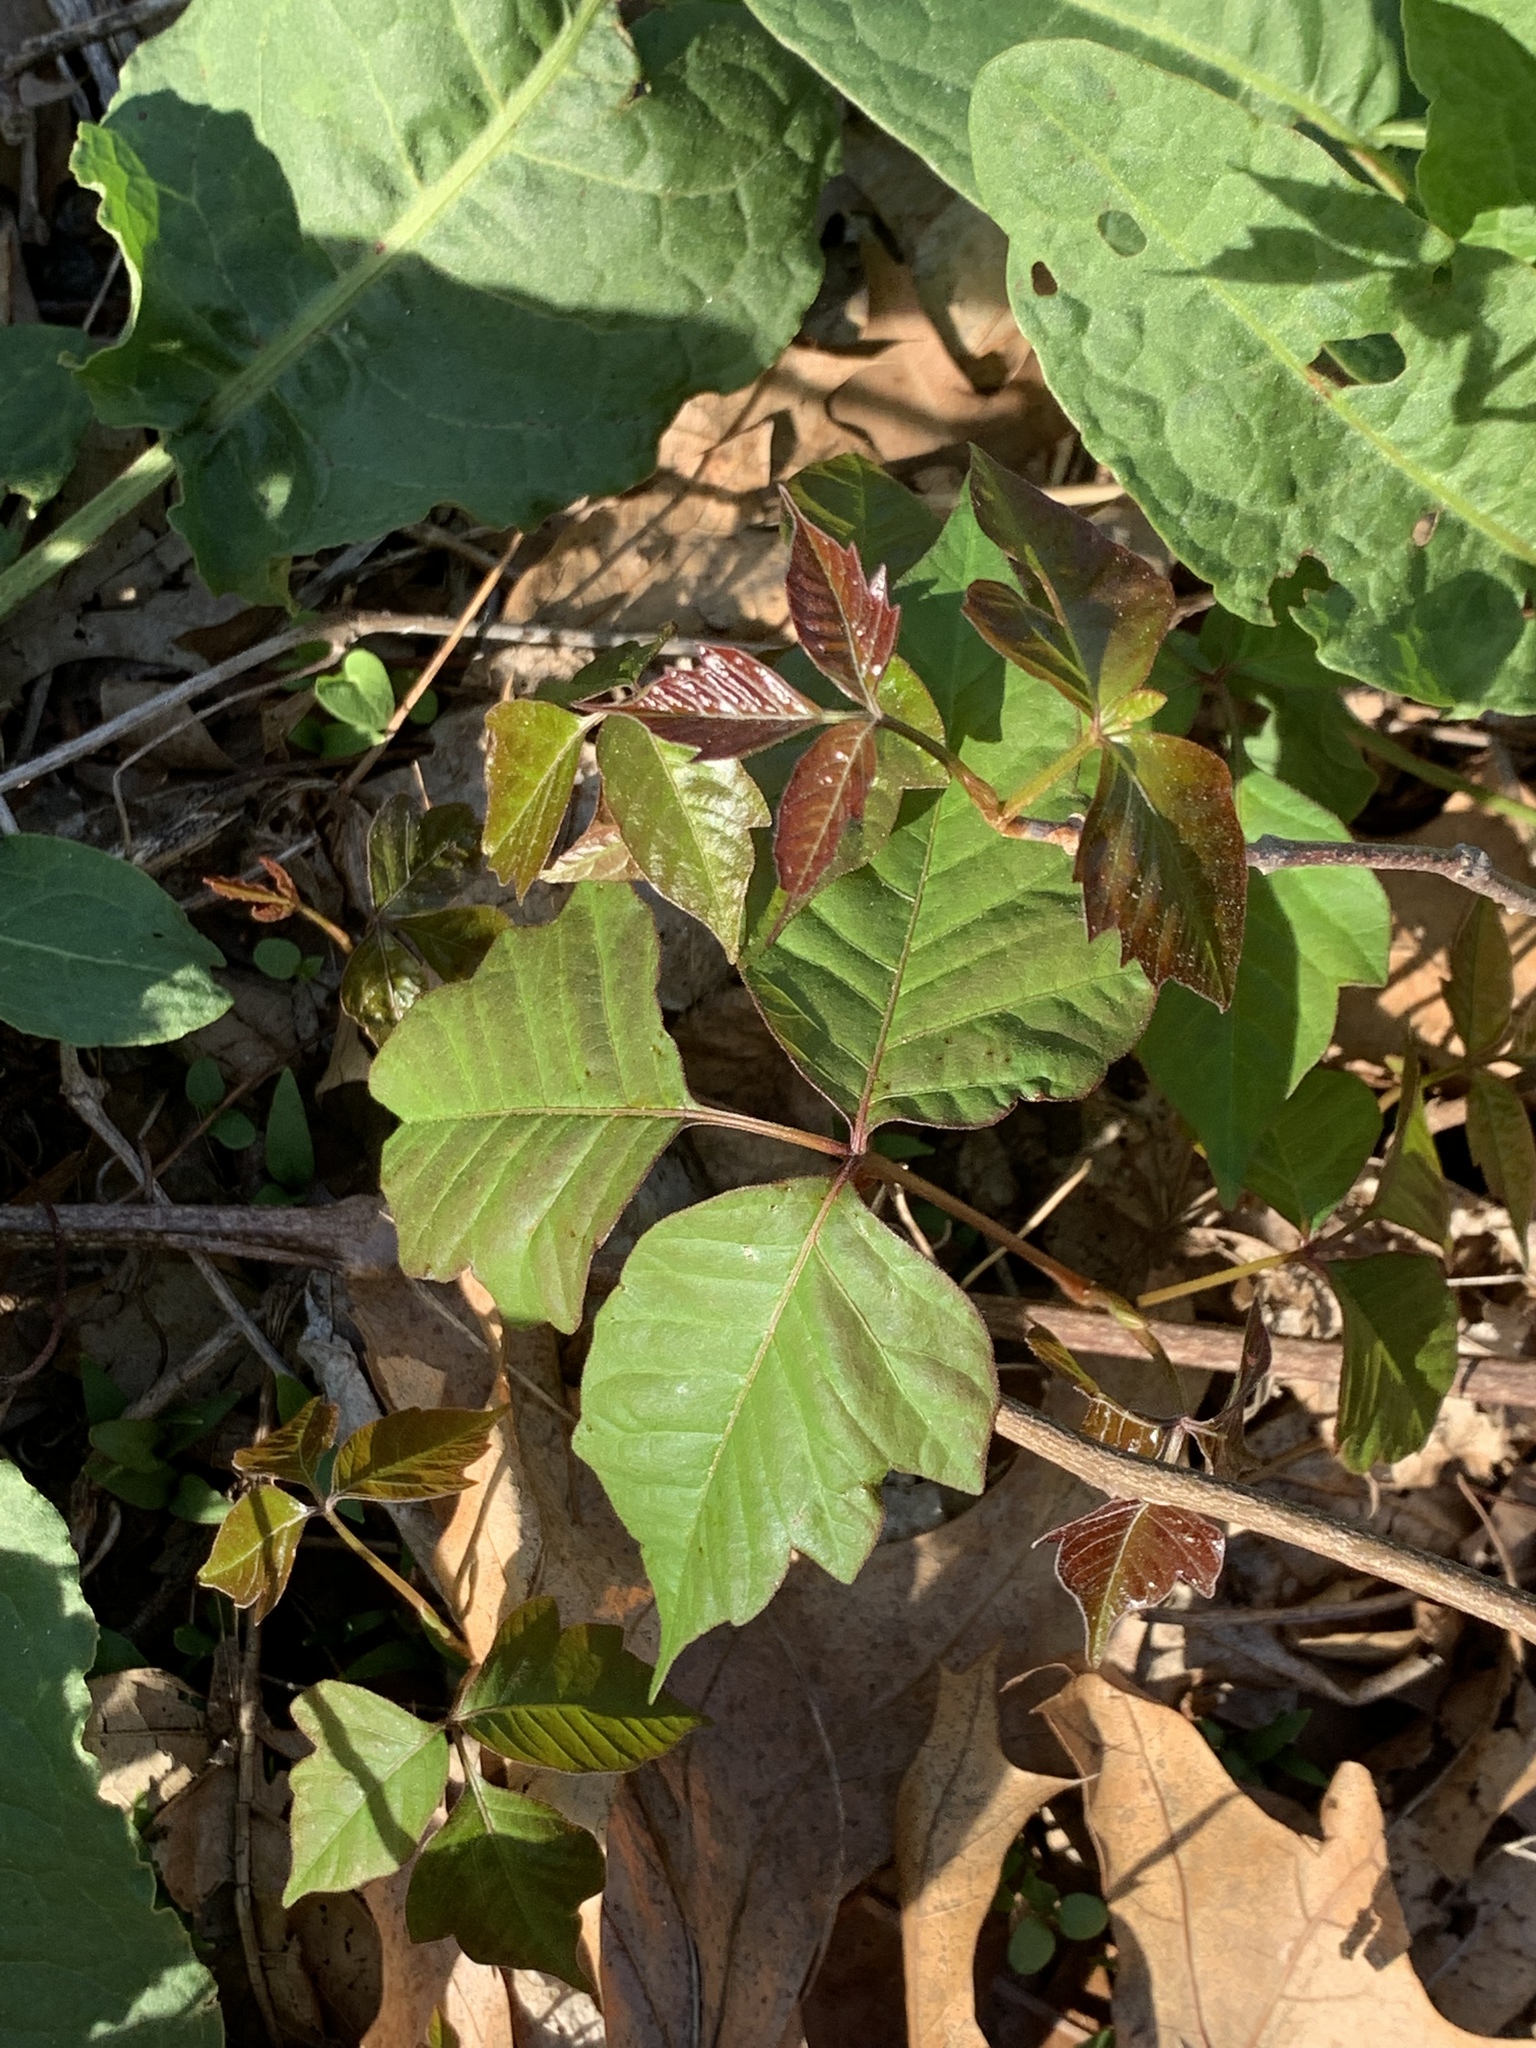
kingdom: Plantae
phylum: Tracheophyta
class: Magnoliopsida
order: Sapindales
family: Anacardiaceae
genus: Toxicodendron
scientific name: Toxicodendron radicans
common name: Poison ivy
